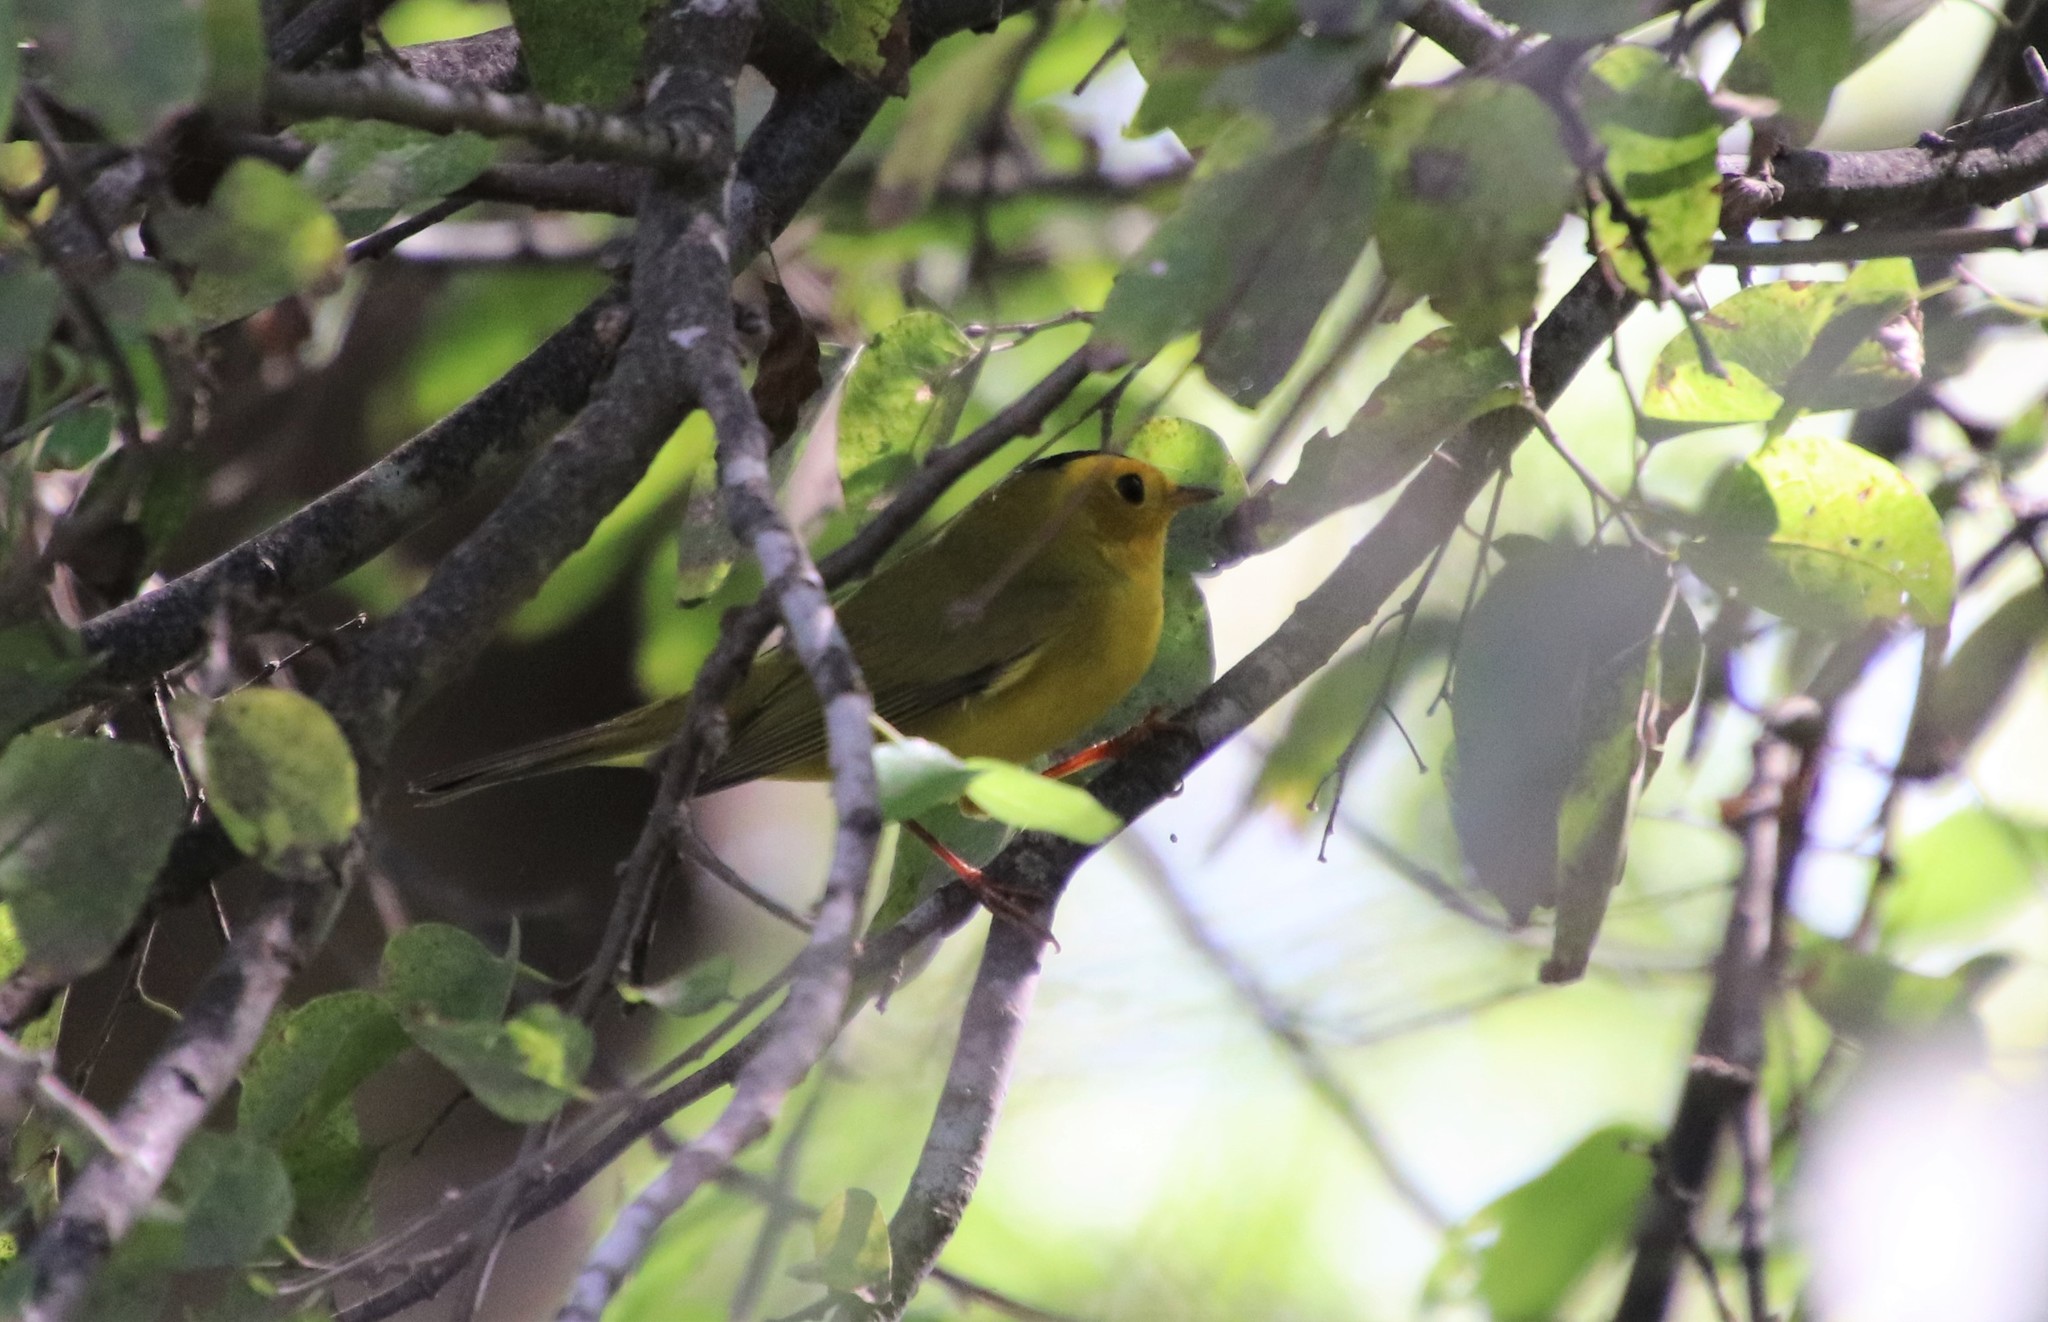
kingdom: Animalia
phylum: Chordata
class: Aves
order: Passeriformes
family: Parulidae
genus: Cardellina
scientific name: Cardellina pusilla
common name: Wilson's warbler
